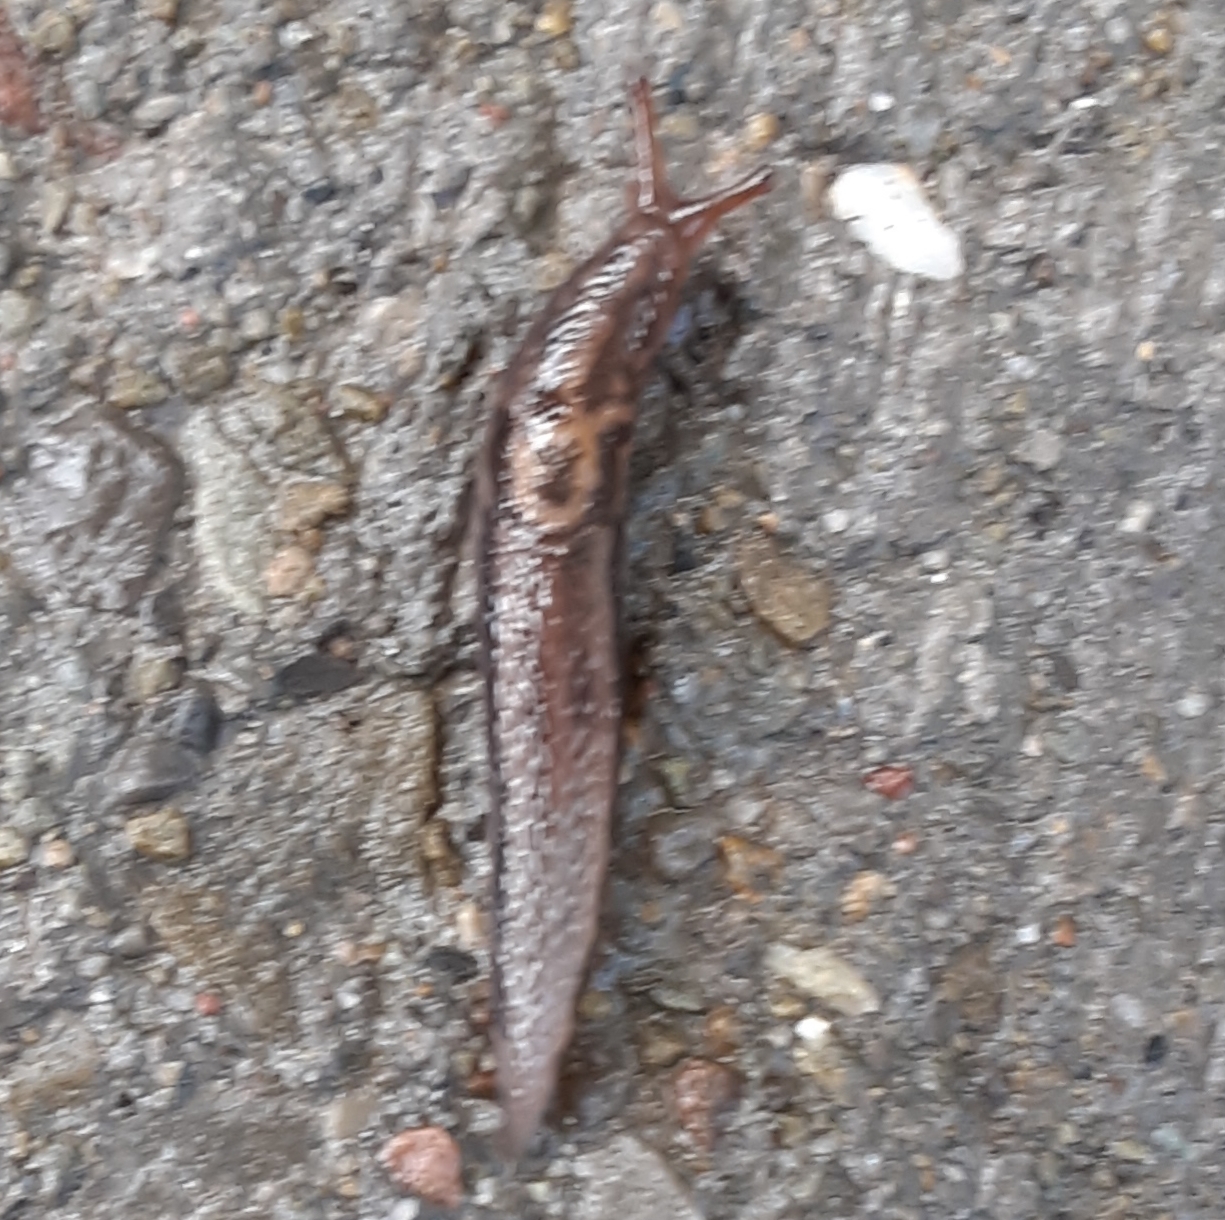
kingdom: Animalia
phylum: Mollusca
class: Gastropoda
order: Stylommatophora
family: Limacidae
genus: Limax
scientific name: Limax maximus
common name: Great grey slug
